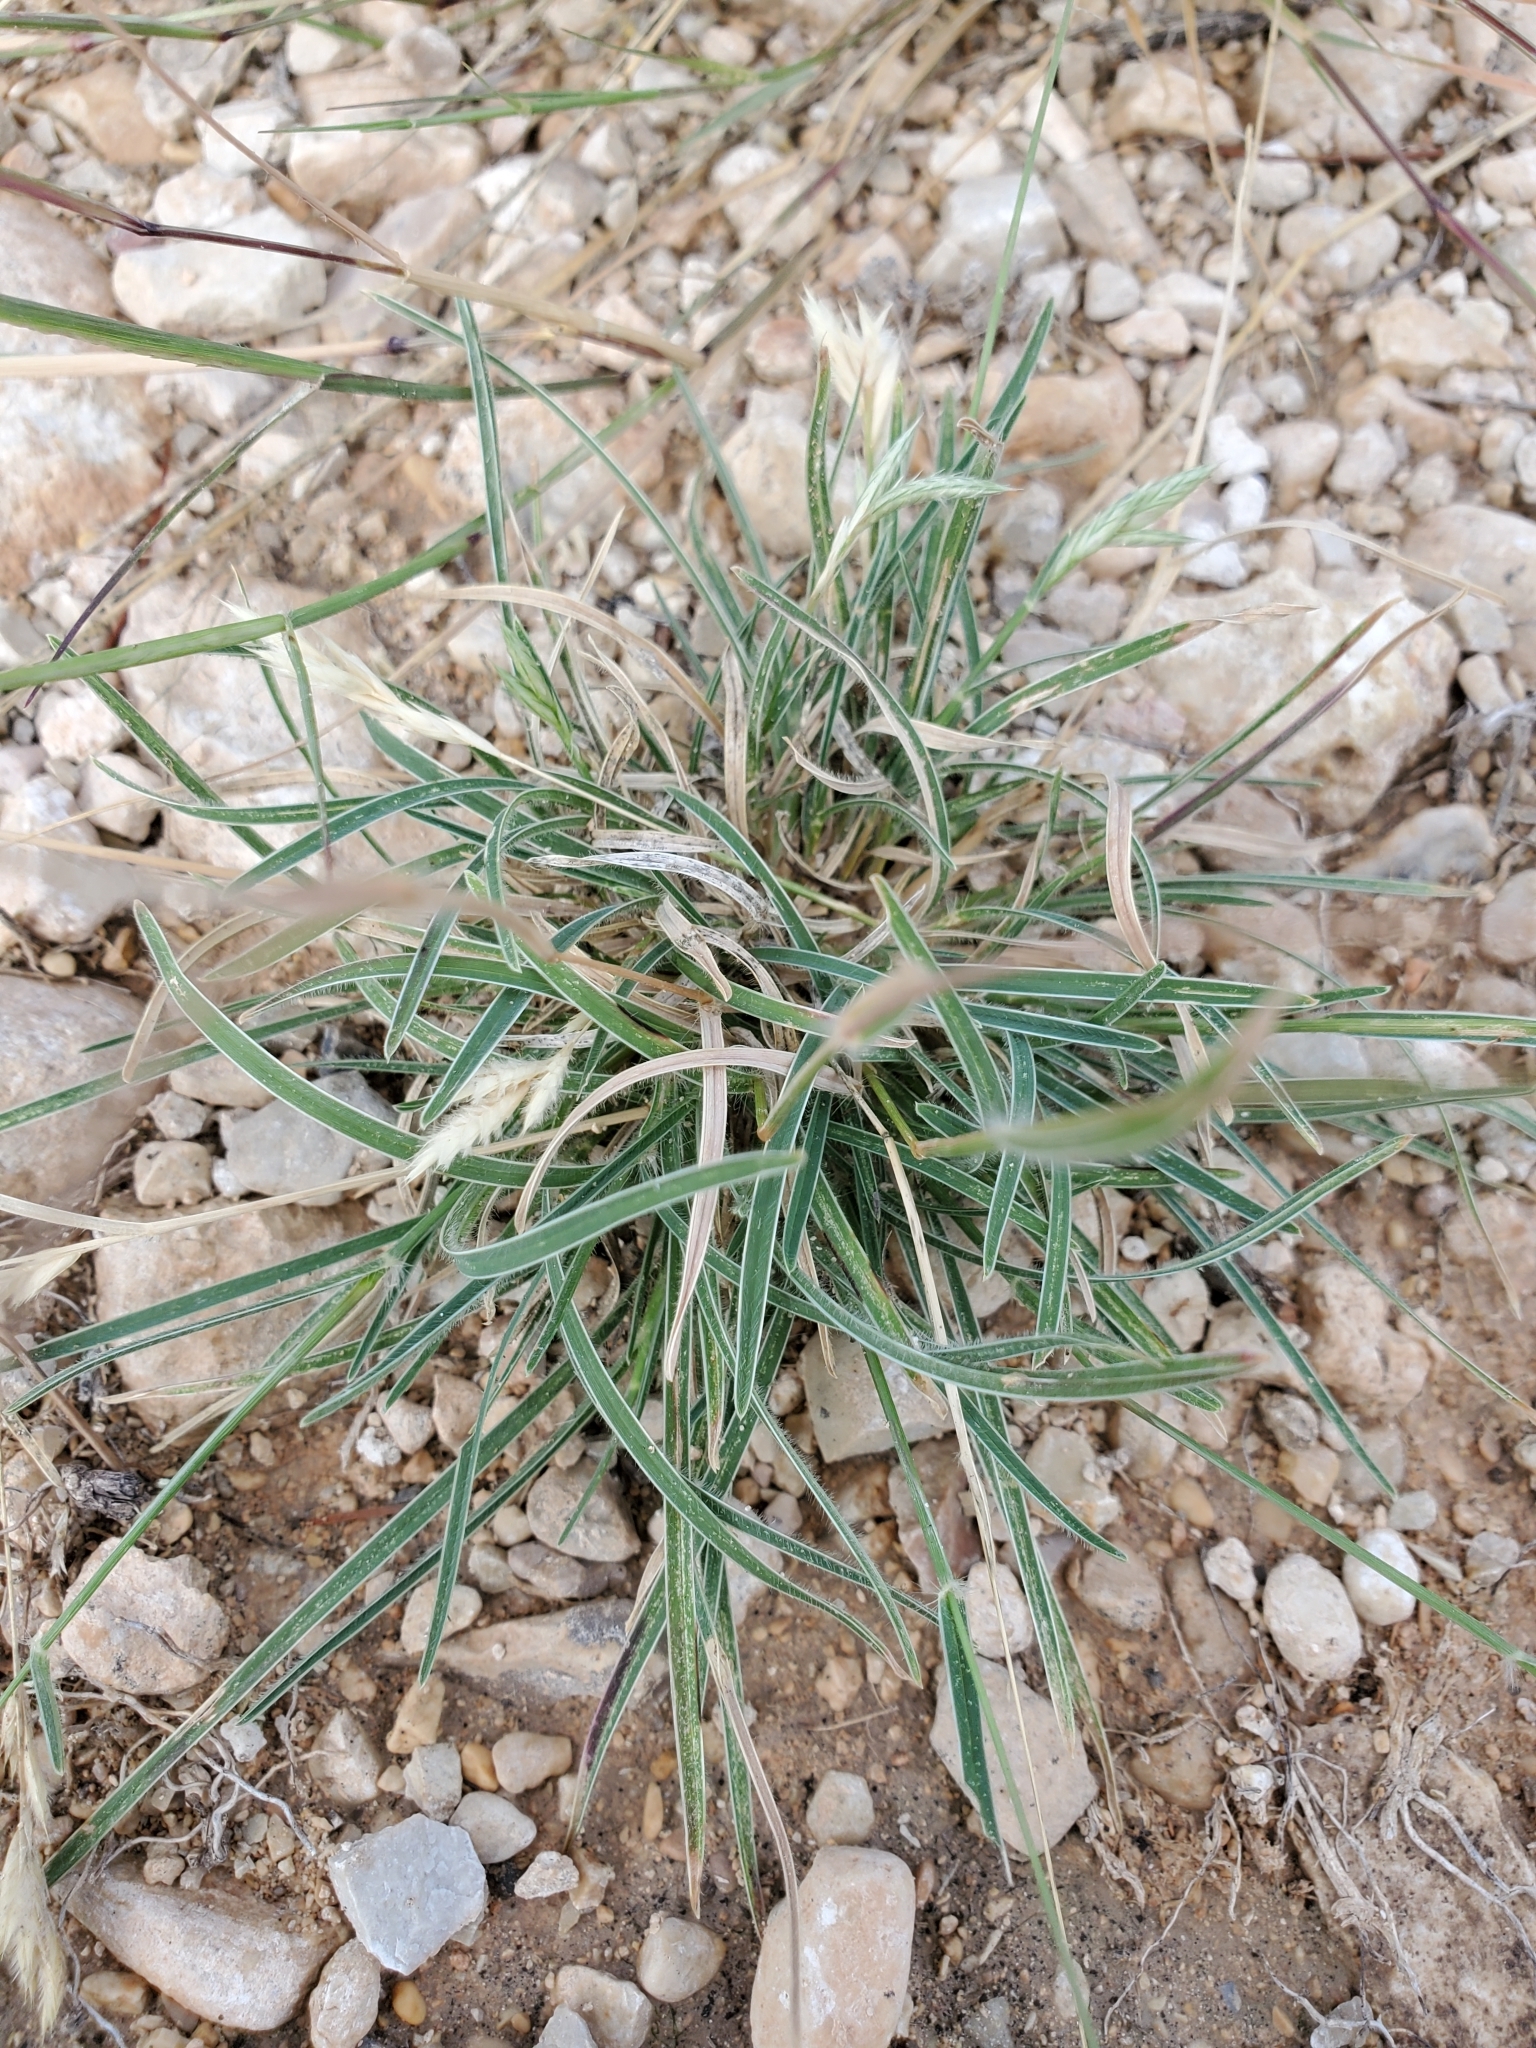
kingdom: Plantae
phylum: Tracheophyta
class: Liliopsida
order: Poales
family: Poaceae
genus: Erioneuron
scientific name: Erioneuron pilosum
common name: Hairy woolly grass
